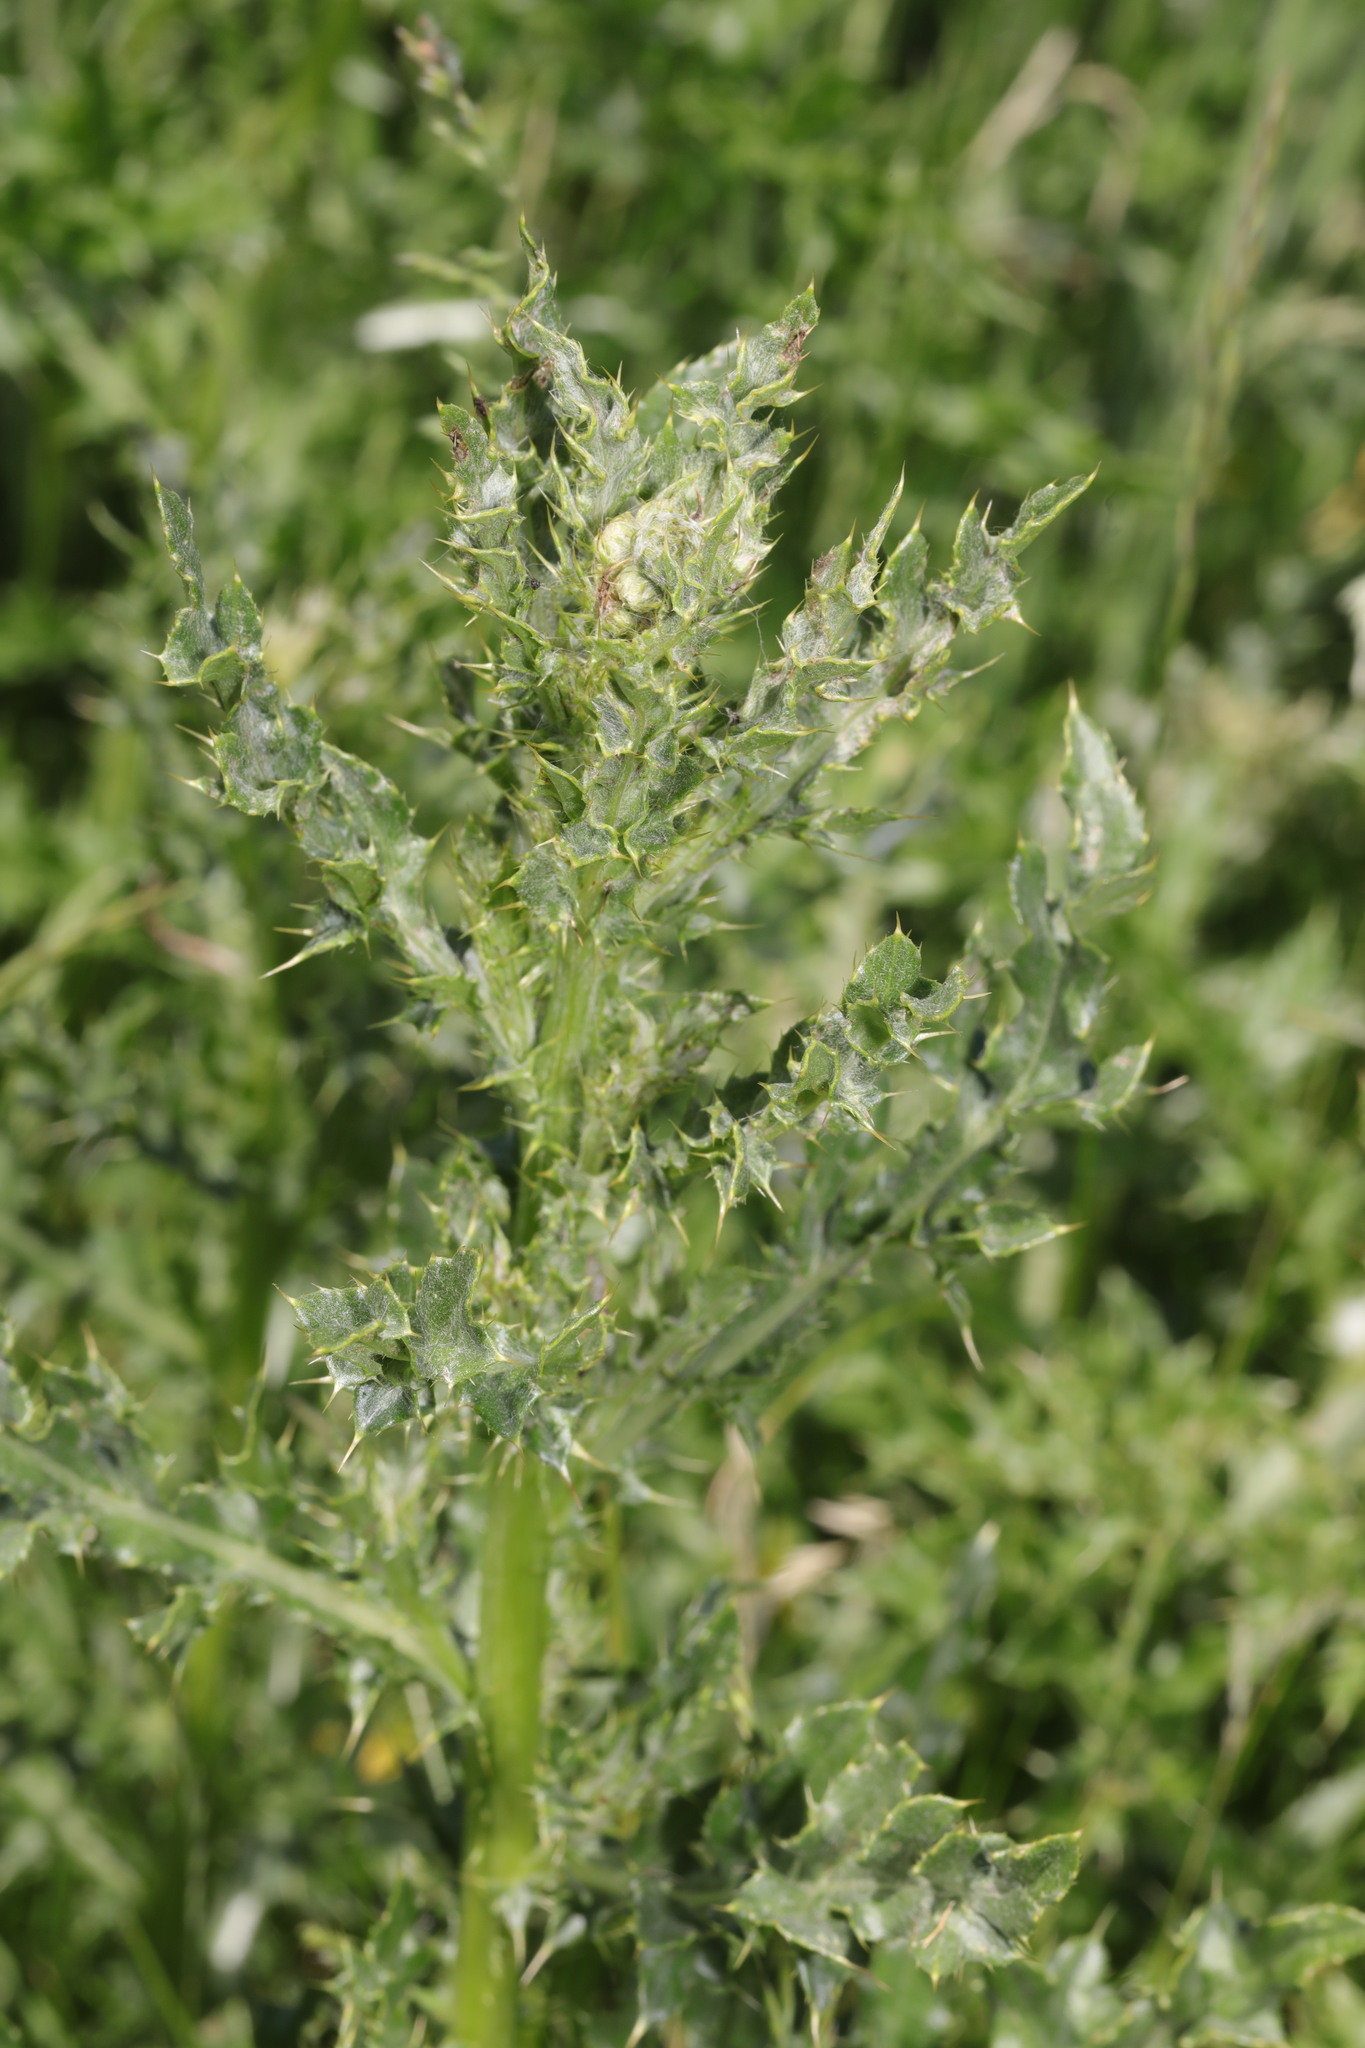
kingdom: Plantae
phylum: Tracheophyta
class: Magnoliopsida
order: Asterales
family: Asteraceae
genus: Cirsium
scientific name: Cirsium arvense
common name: Creeping thistle
